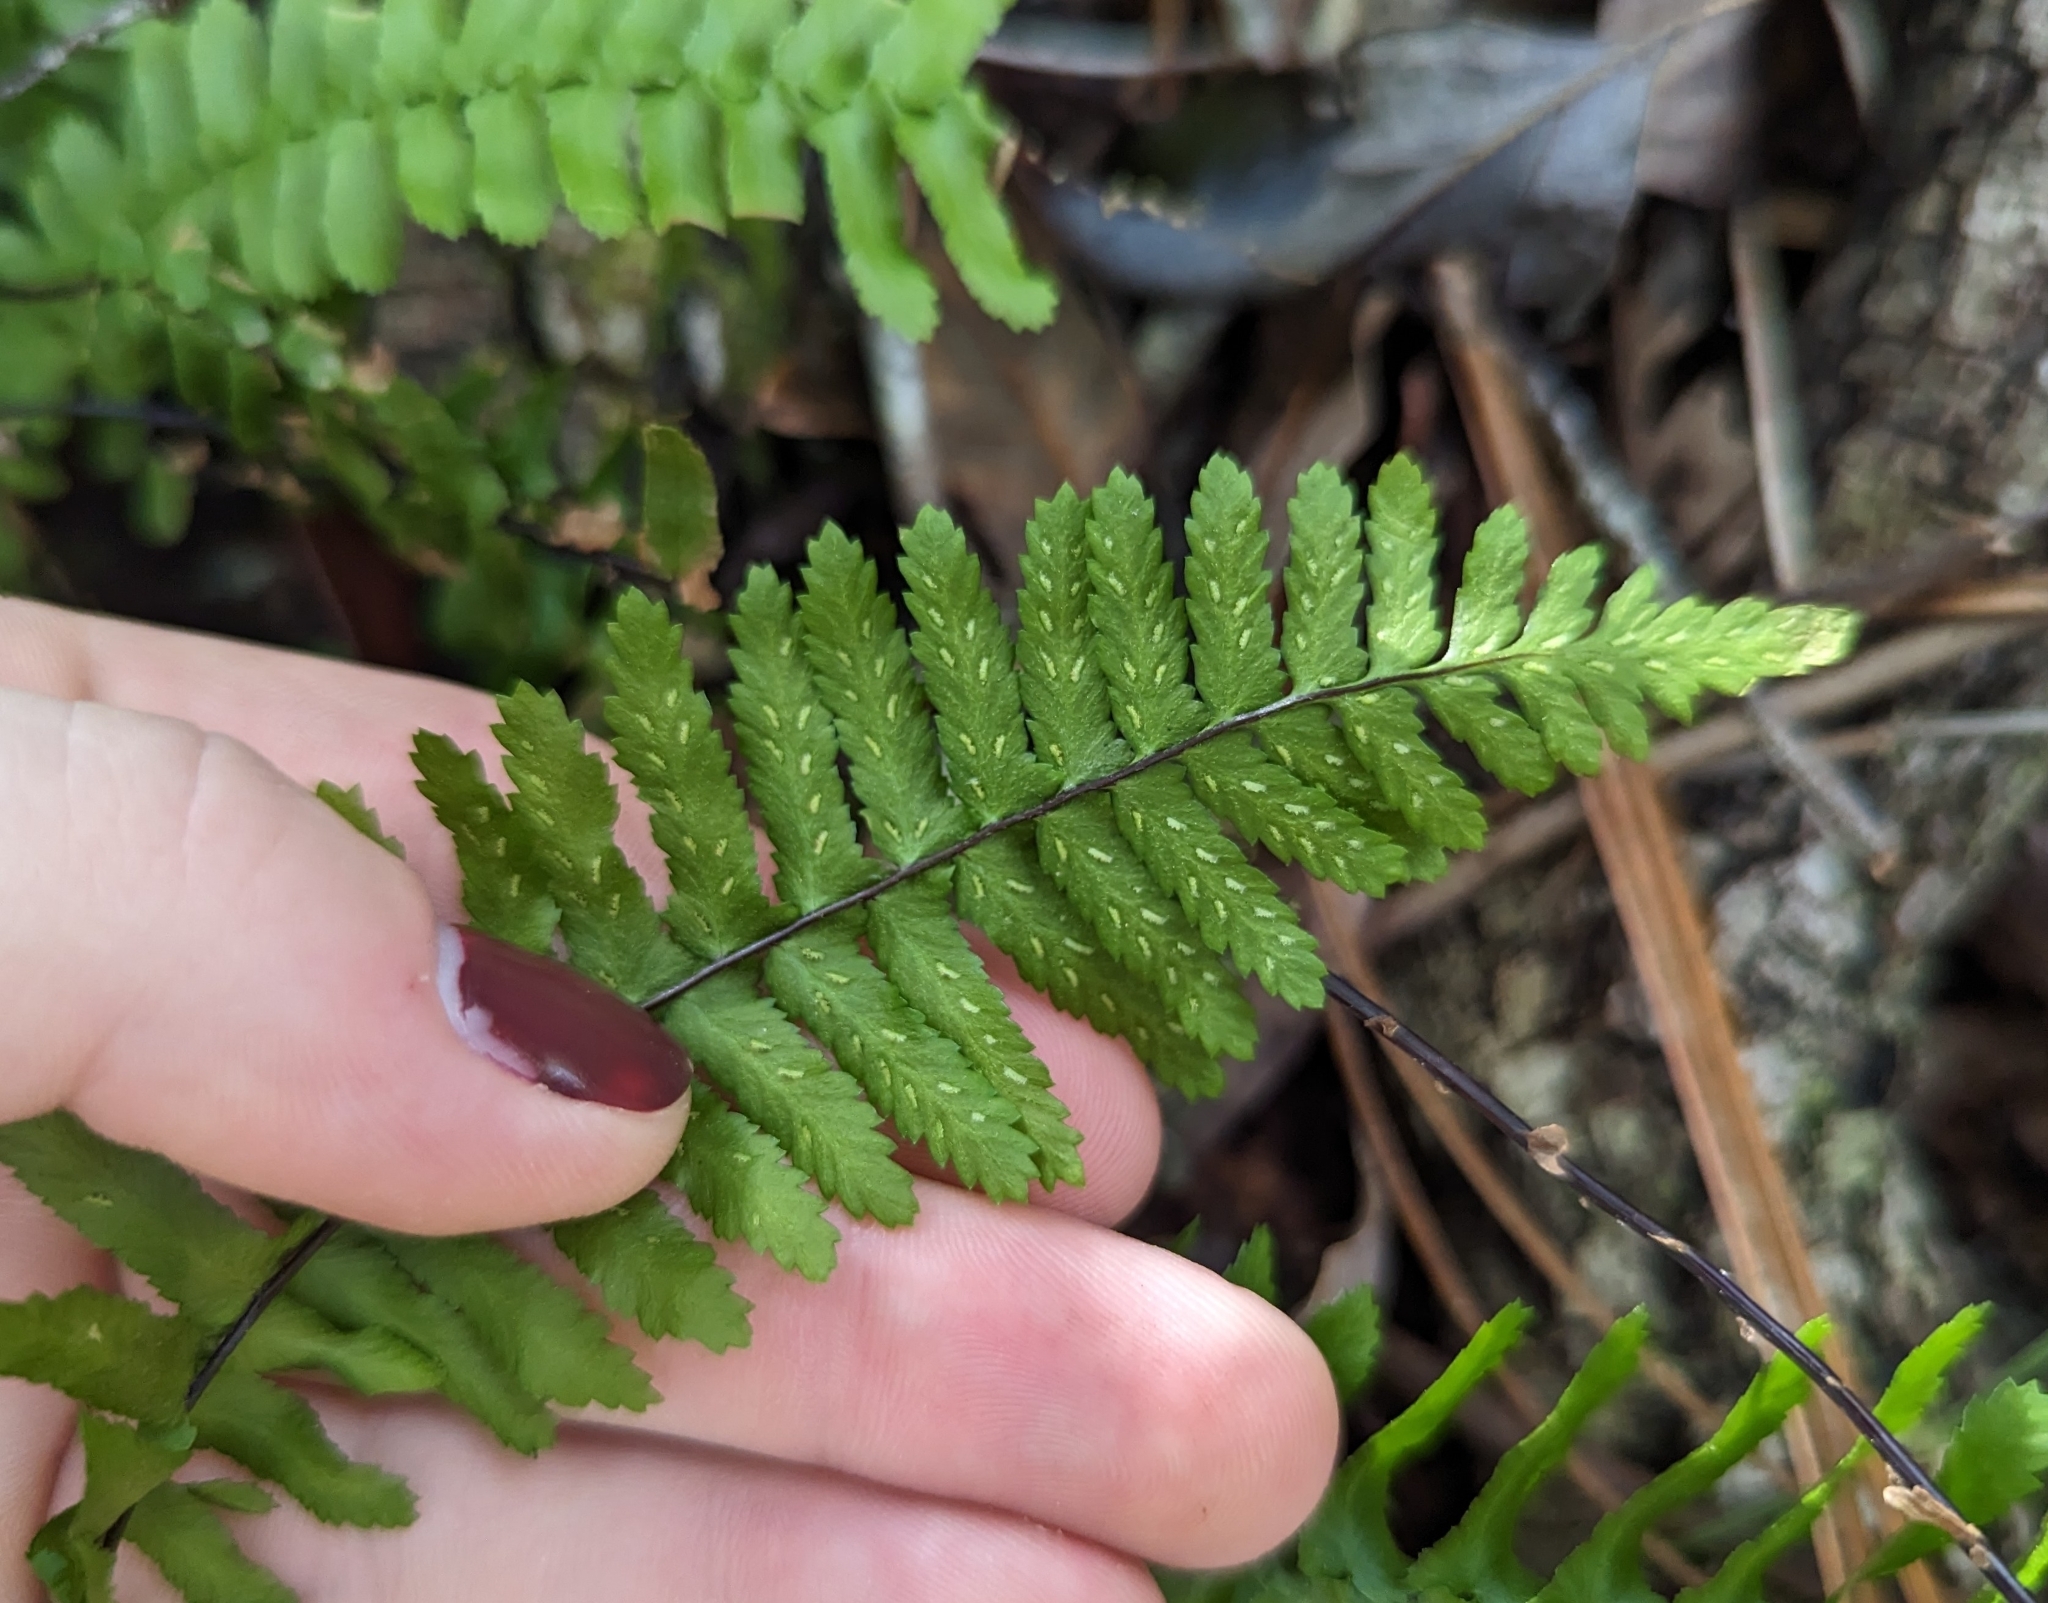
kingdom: Plantae
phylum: Tracheophyta
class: Polypodiopsida
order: Polypodiales
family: Aspleniaceae
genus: Asplenium
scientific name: Asplenium platyneuron
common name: Ebony spleenwort
